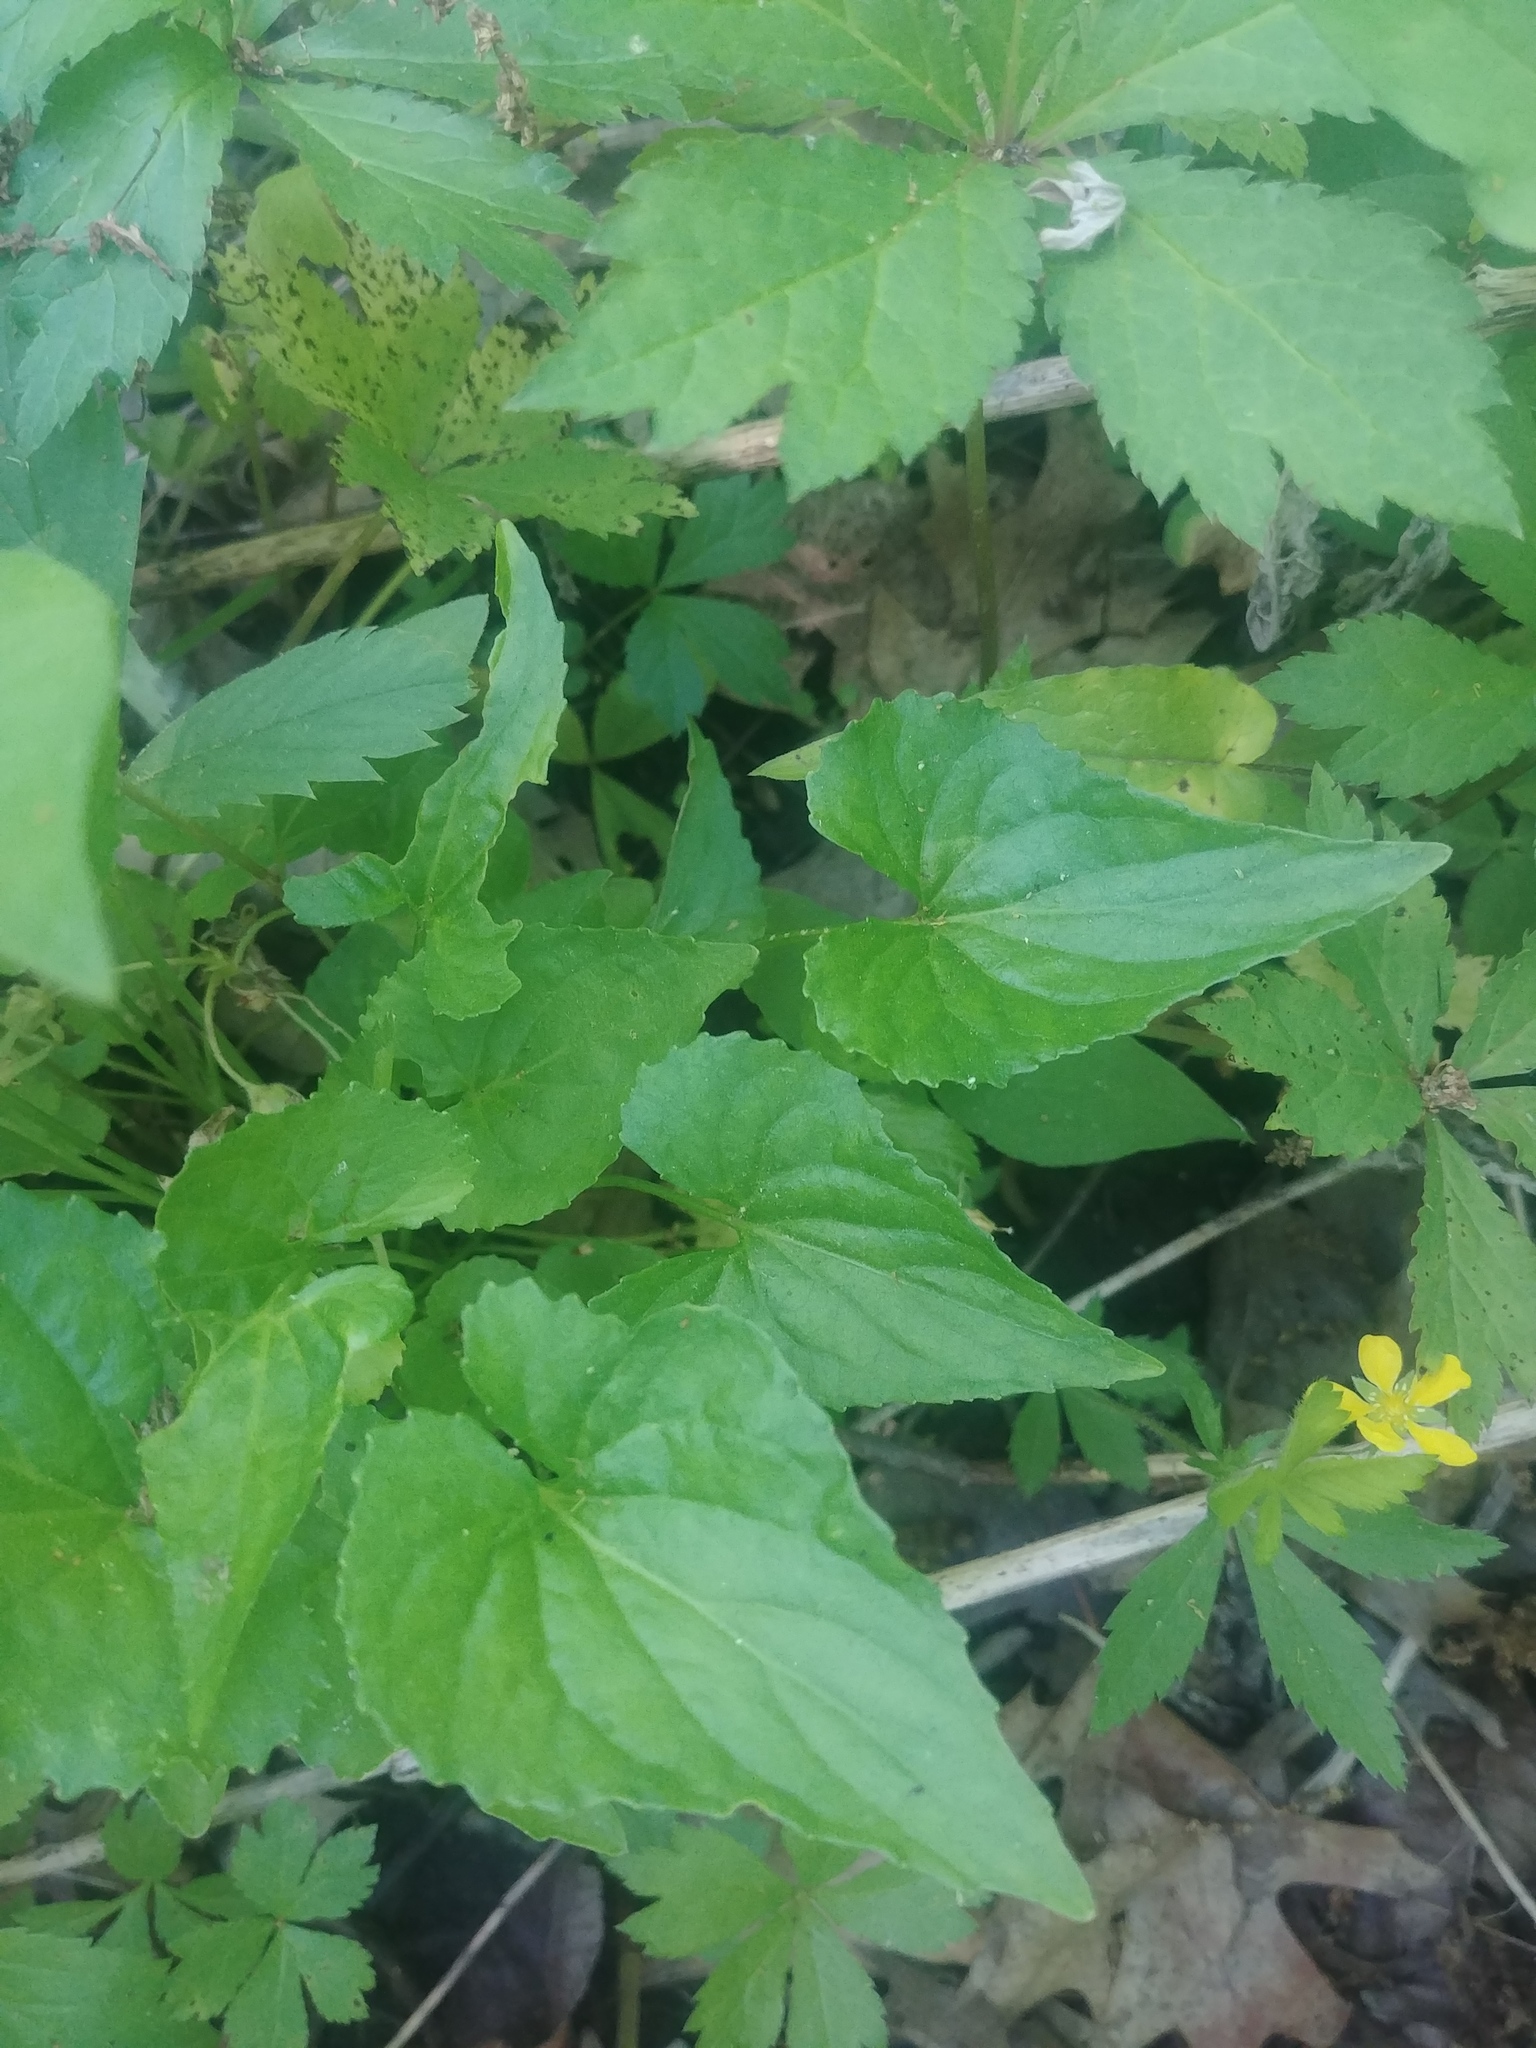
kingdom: Plantae
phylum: Tracheophyta
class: Magnoliopsida
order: Malpighiales
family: Violaceae
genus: Viola
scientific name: Viola cucullata
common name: Marsh blue violet
